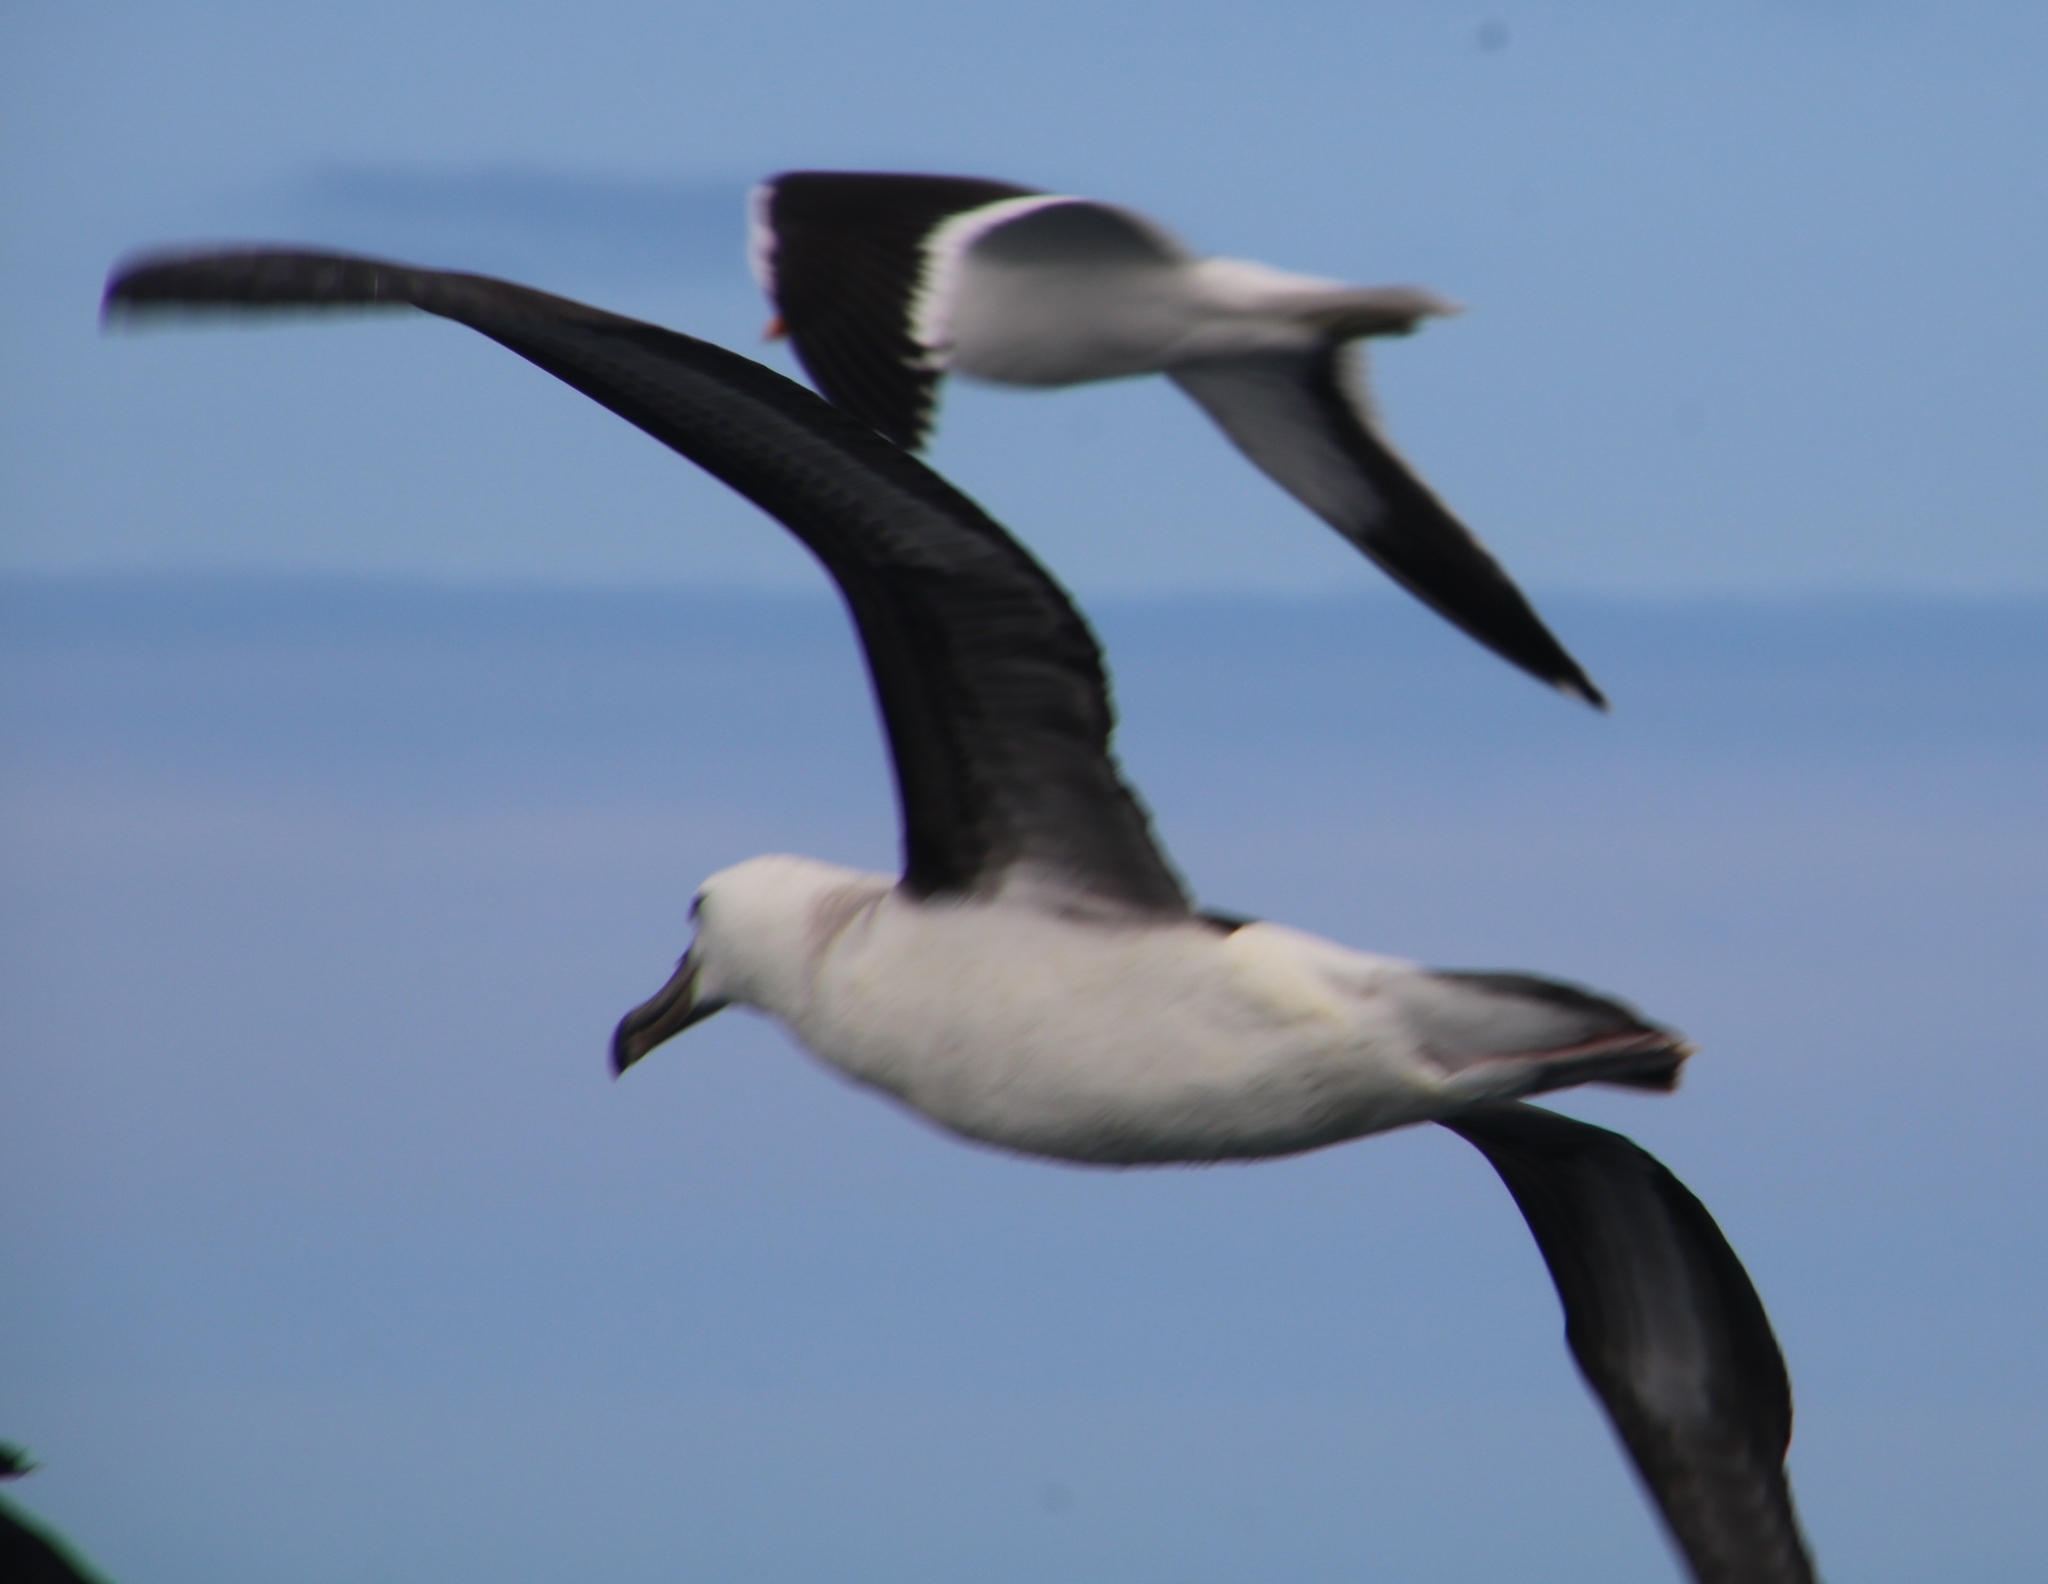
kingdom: Animalia
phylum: Chordata
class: Aves
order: Procellariiformes
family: Diomedeidae
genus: Thalassarche
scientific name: Thalassarche melanophris
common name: Black-browed albatross
